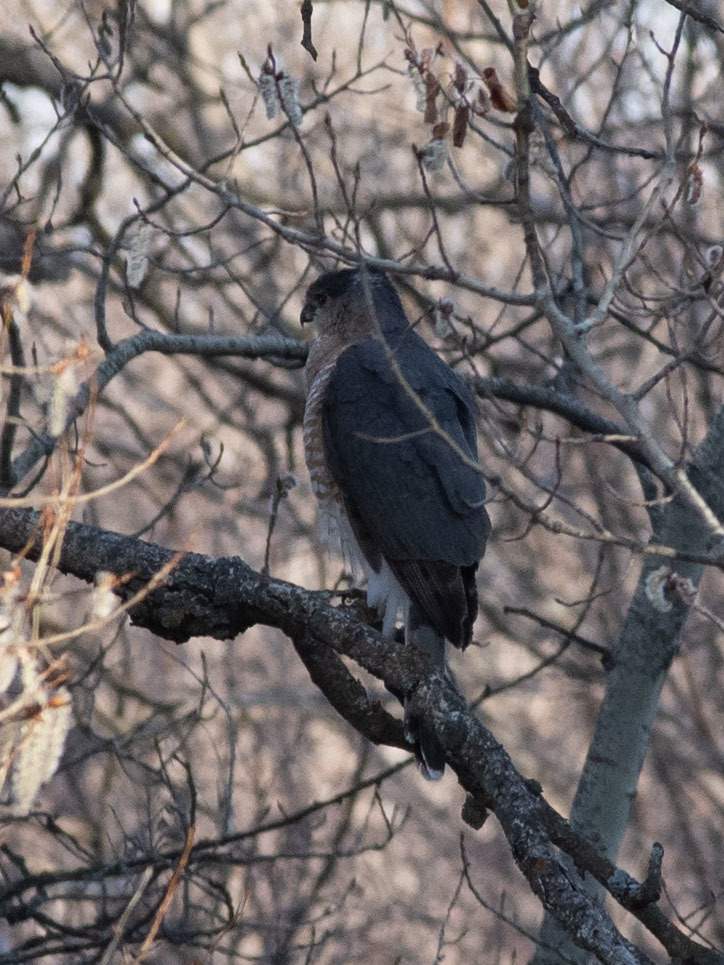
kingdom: Animalia
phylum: Chordata
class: Aves
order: Accipitriformes
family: Accipitridae
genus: Accipiter
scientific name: Accipiter cooperii
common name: Cooper's hawk
